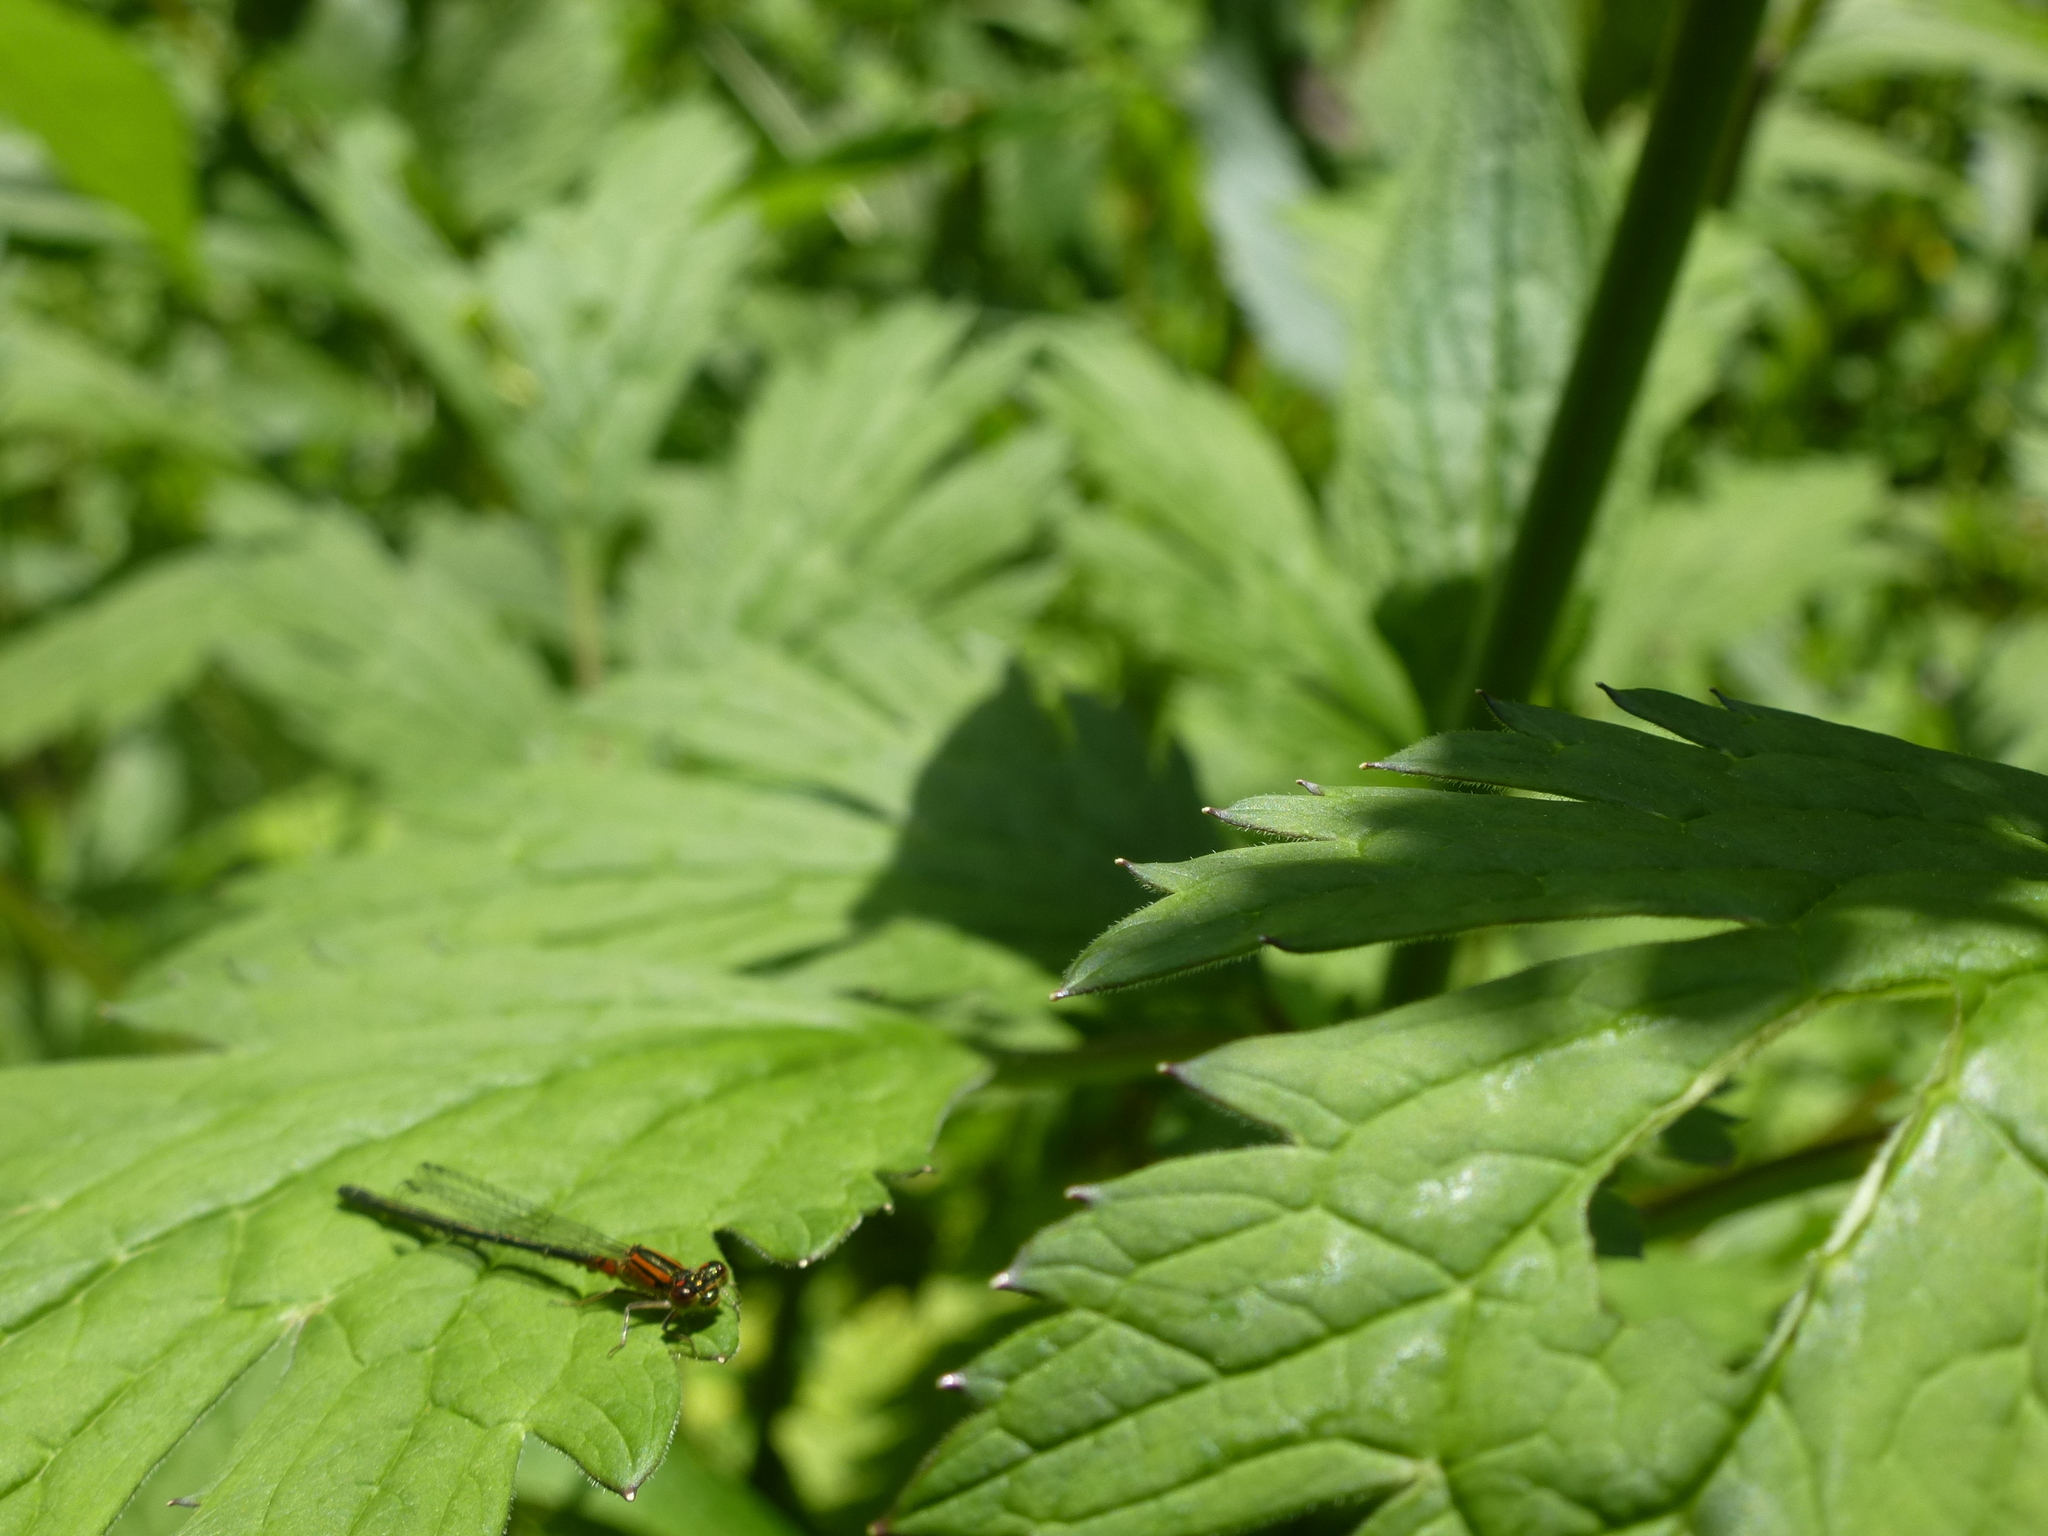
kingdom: Animalia
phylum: Arthropoda
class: Insecta
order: Odonata
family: Coenagrionidae
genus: Ischnura
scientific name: Ischnura verticalis
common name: Eastern forktail
